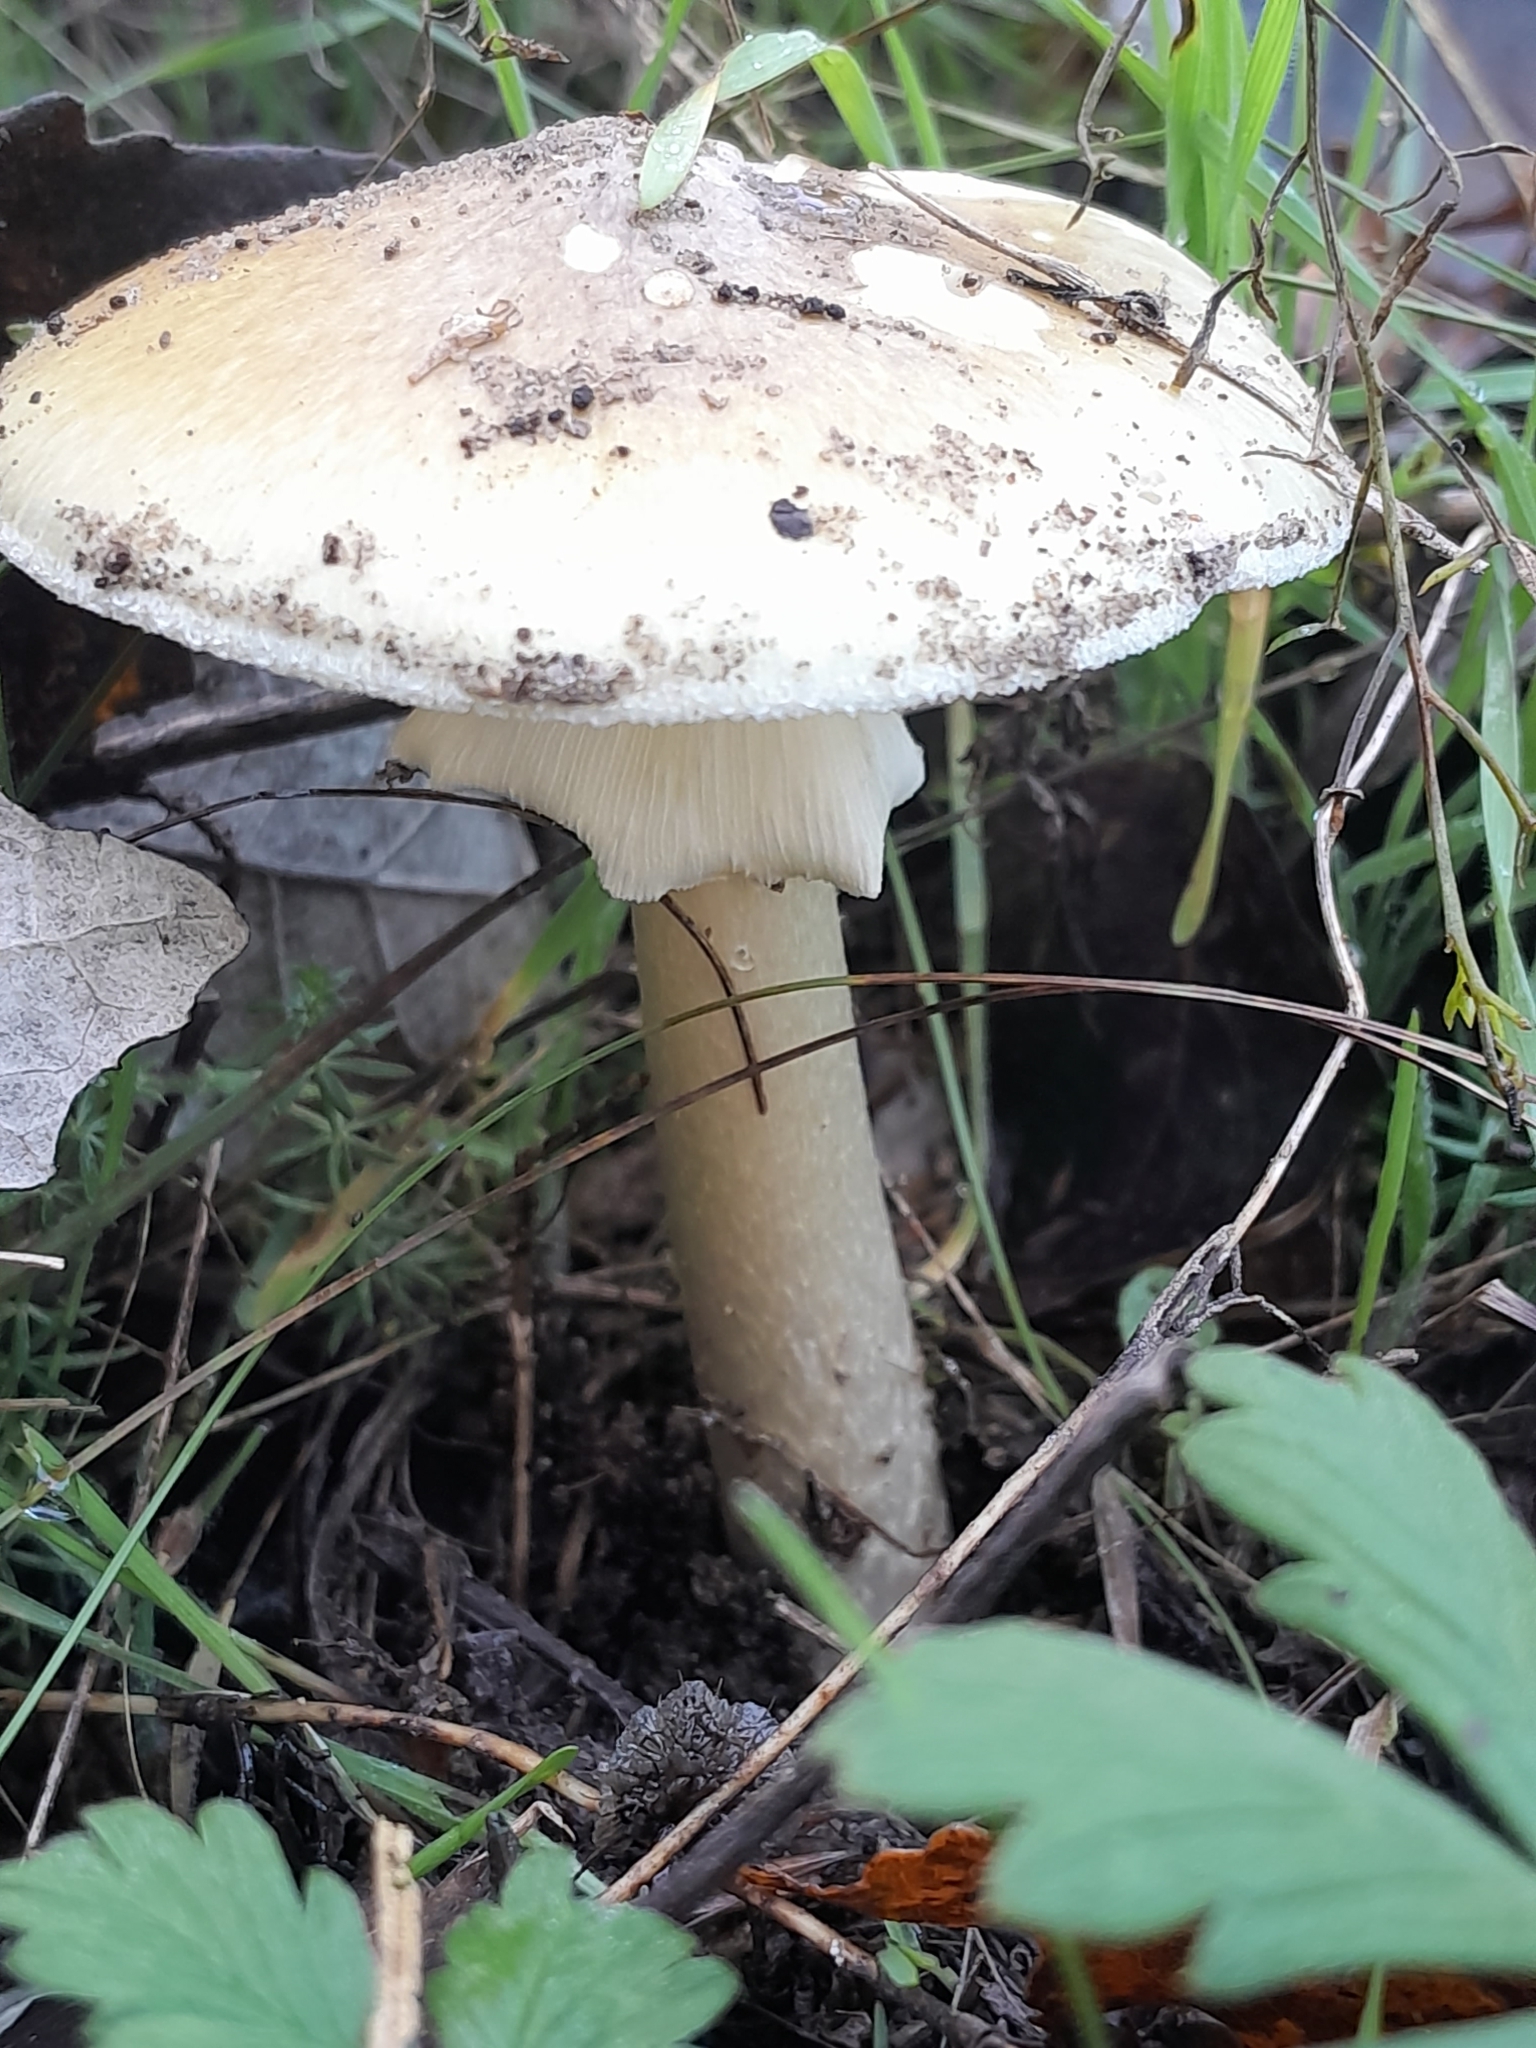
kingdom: Fungi
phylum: Basidiomycota
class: Agaricomycetes
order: Agaricales
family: Amanitaceae
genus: Amanita
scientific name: Amanita phalloides
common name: Death cap
